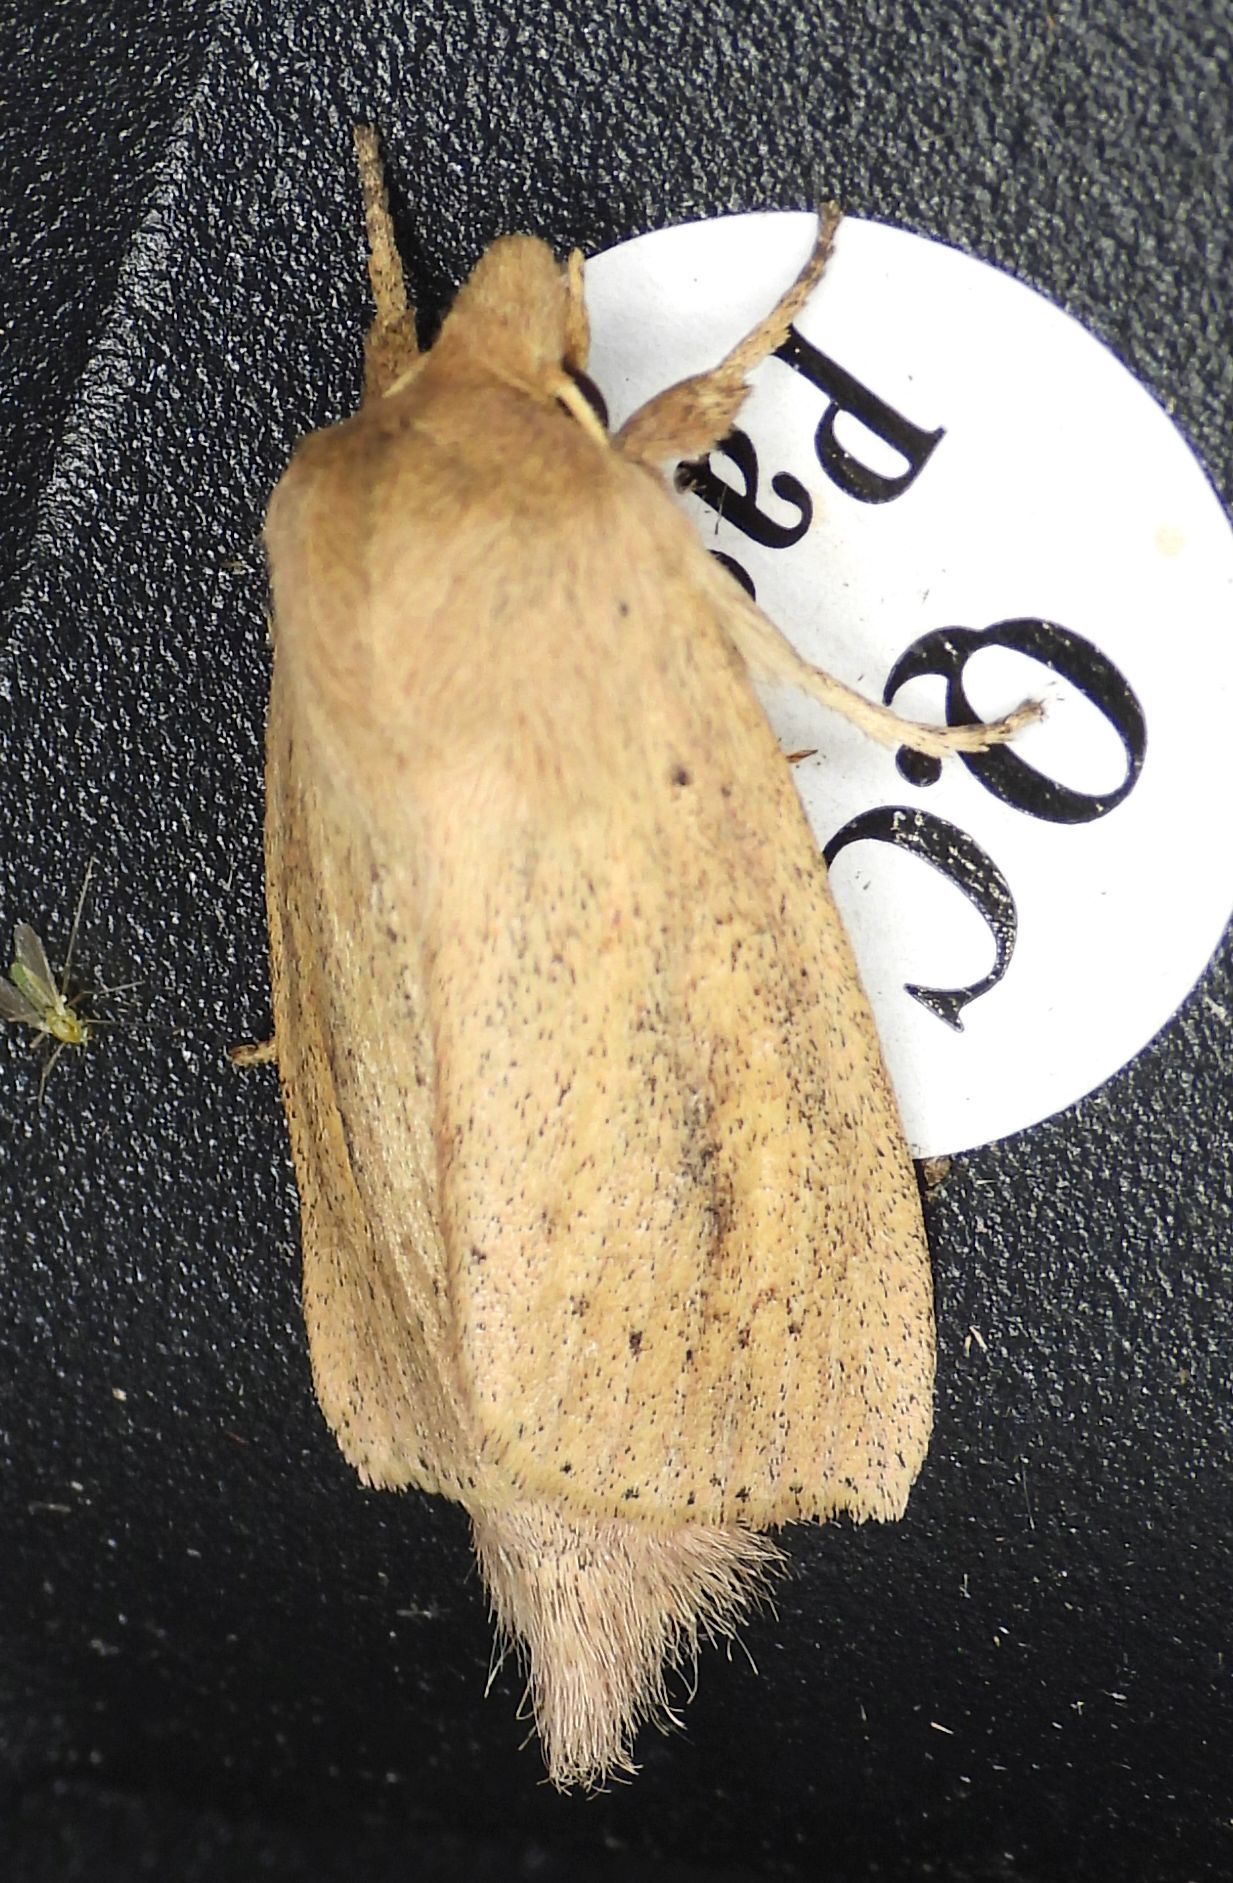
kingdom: Animalia
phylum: Arthropoda
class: Insecta
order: Lepidoptera
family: Noctuidae
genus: Globia
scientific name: Globia oblonga
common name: Oblong sedge borer moth
